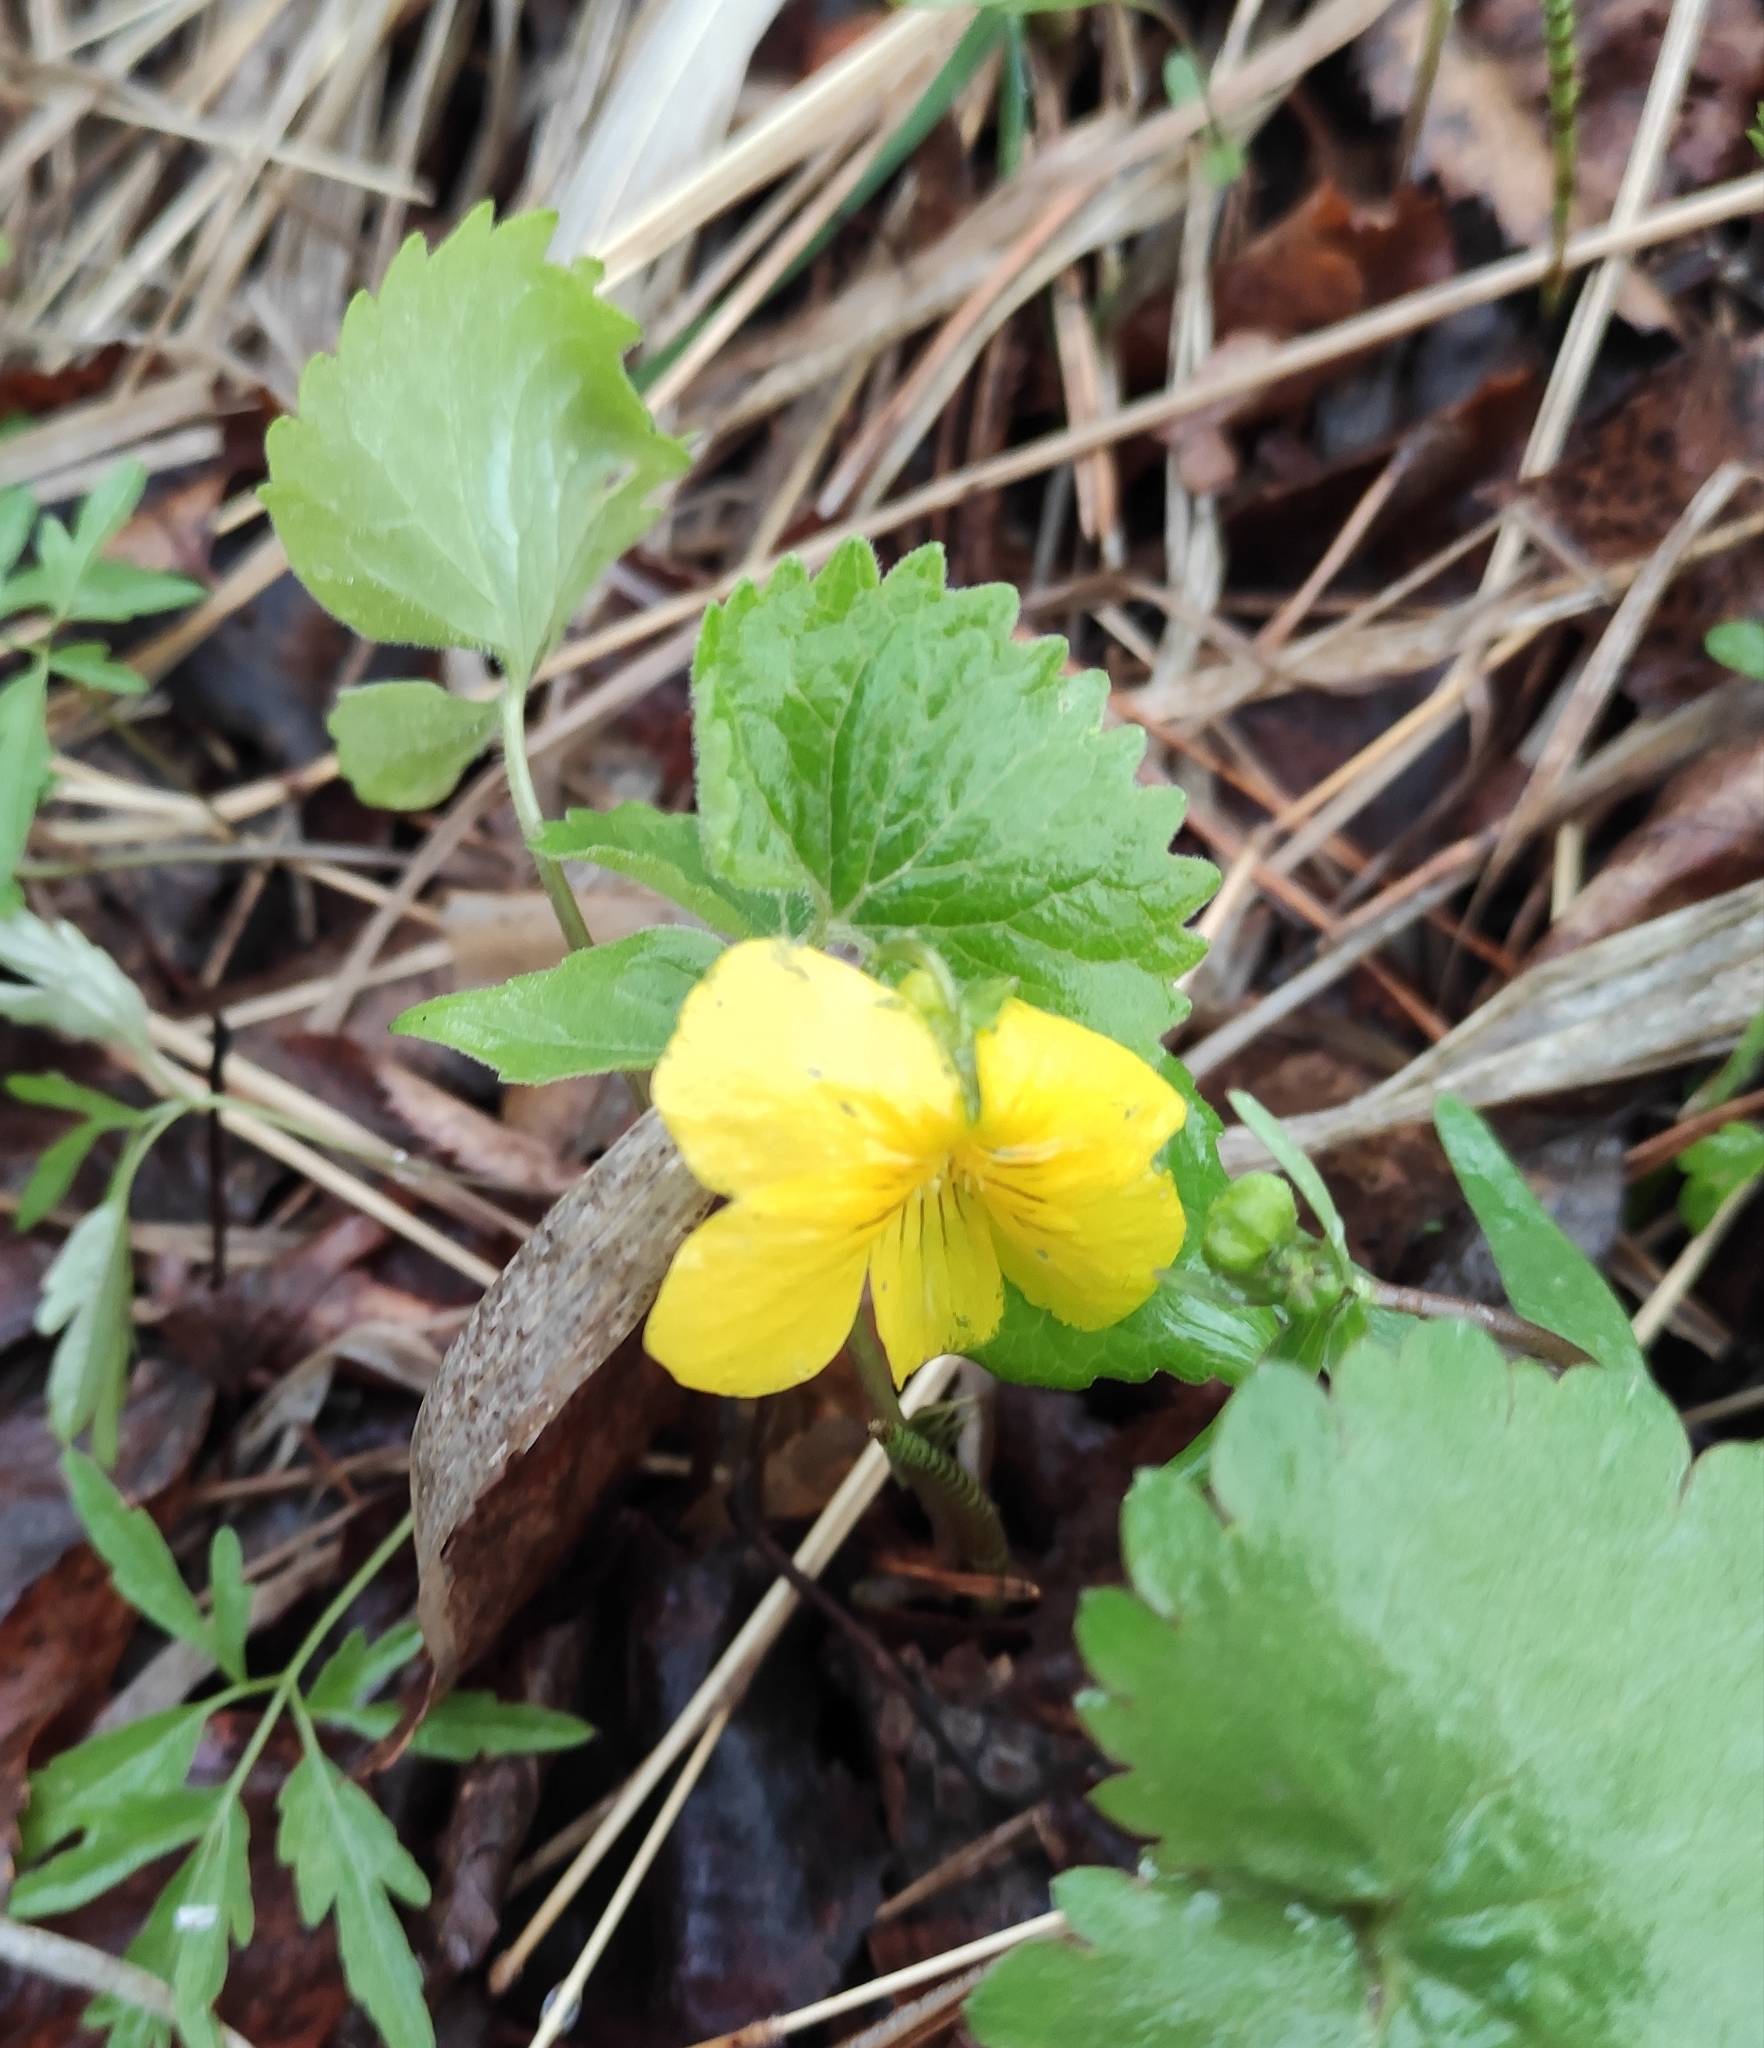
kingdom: Plantae
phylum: Tracheophyta
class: Magnoliopsida
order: Malpighiales
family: Violaceae
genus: Viola
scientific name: Viola uniflora
